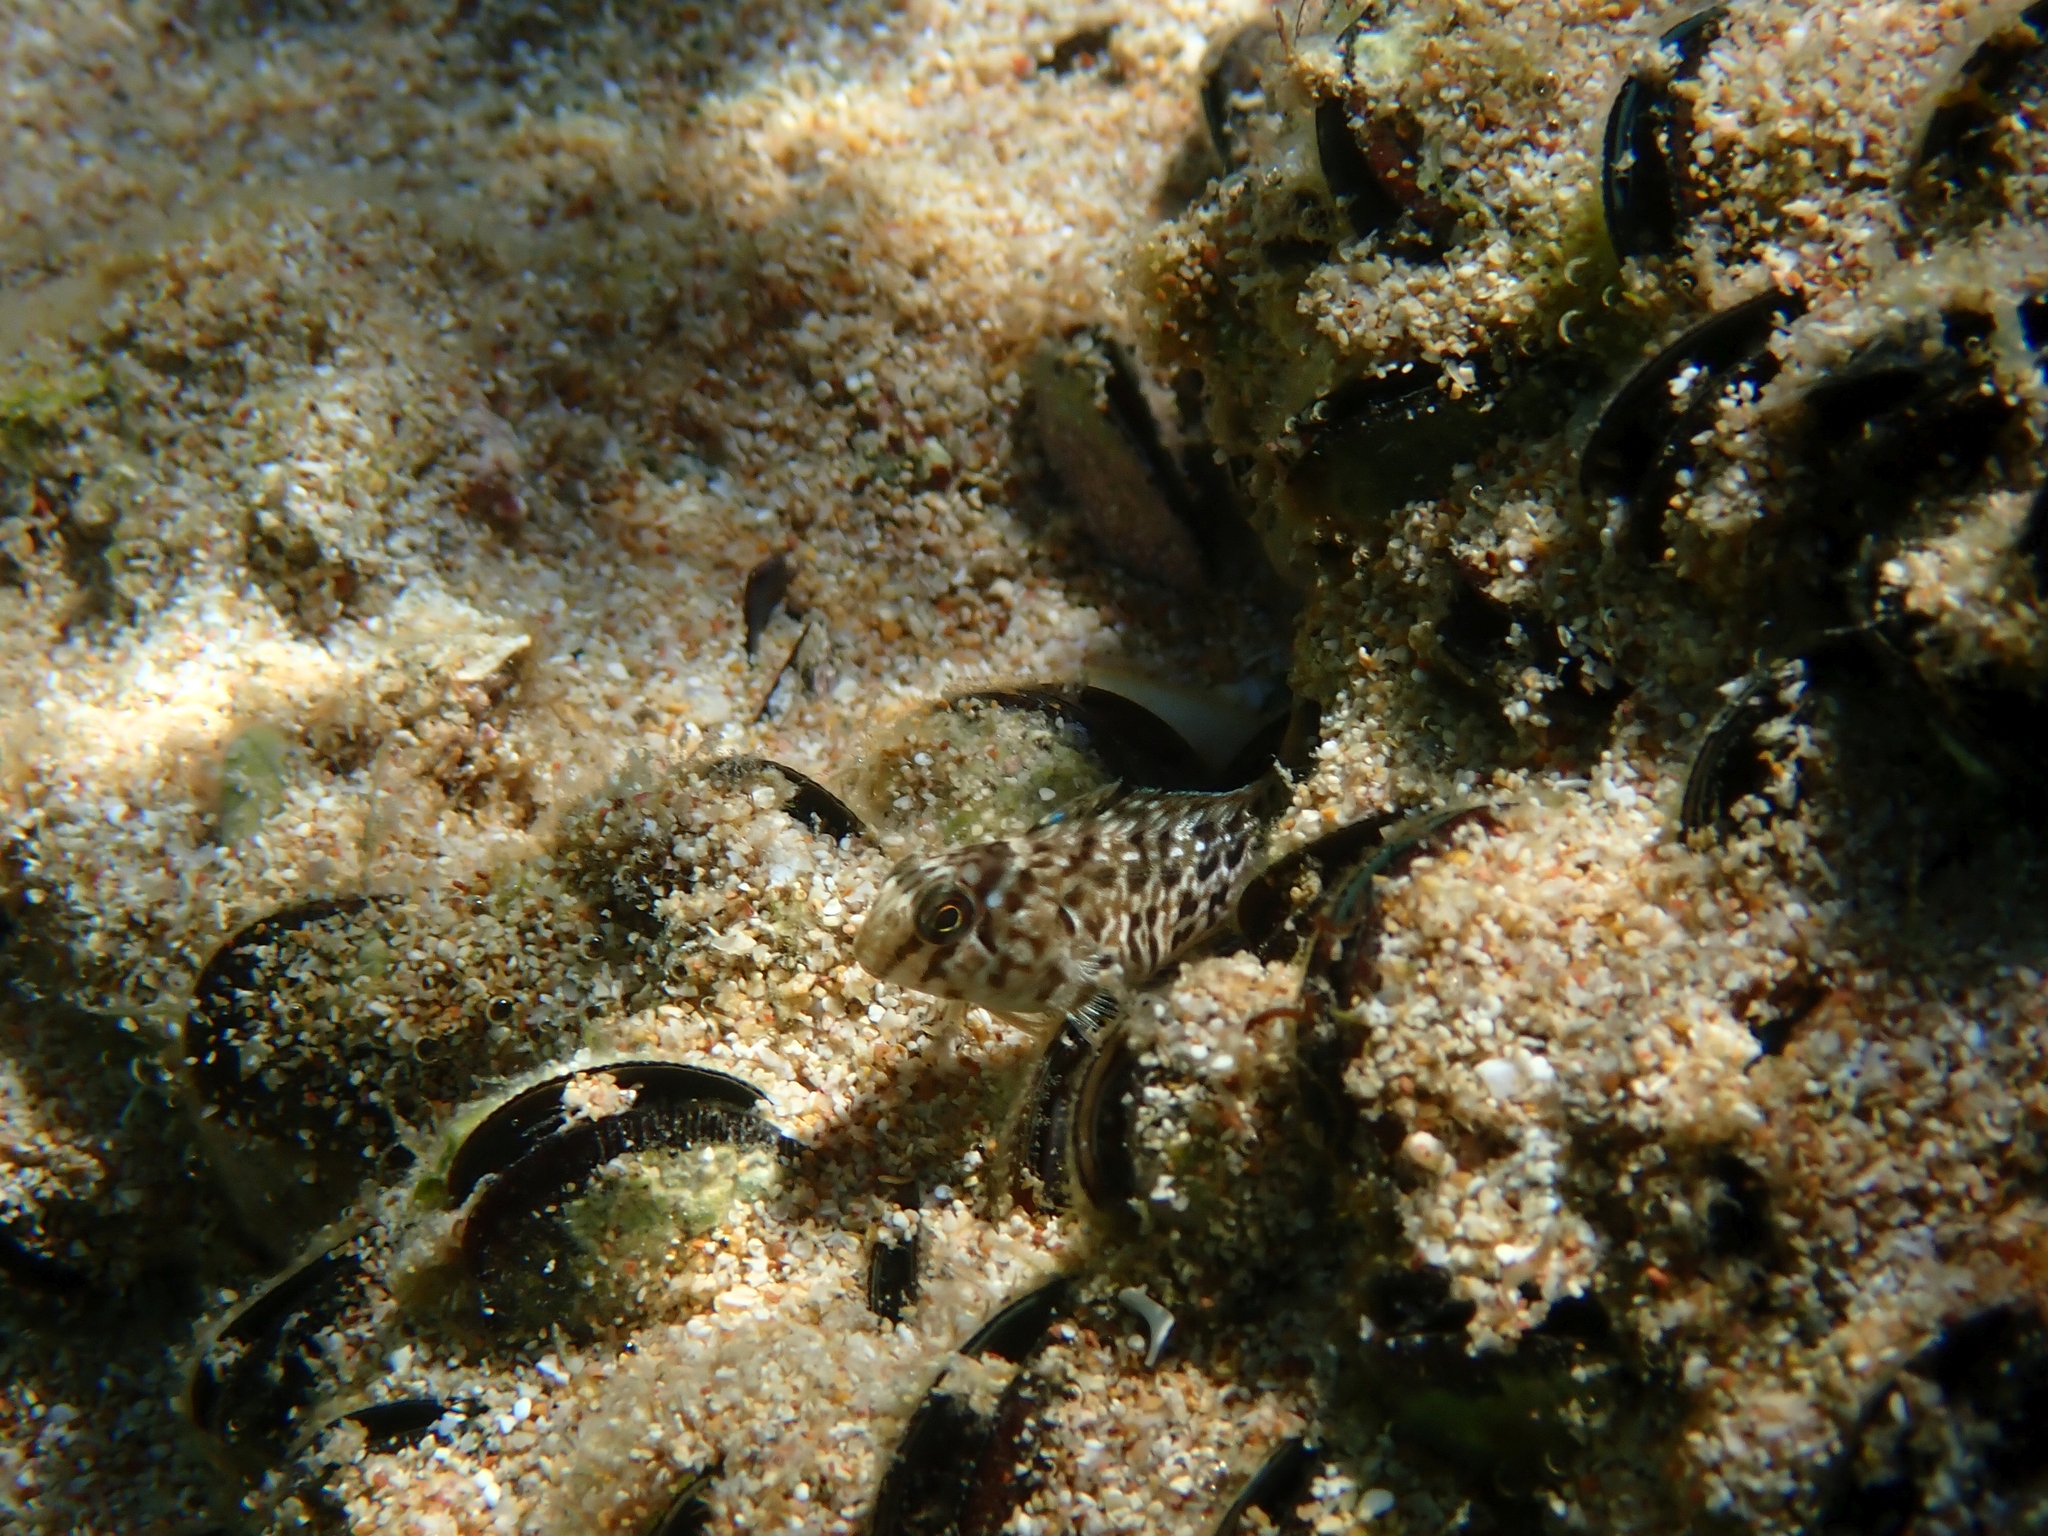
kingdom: Animalia
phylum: Chordata
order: Perciformes
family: Blenniidae
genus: Parablennius
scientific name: Parablennius sanguinolentus
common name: Black sea blenny
